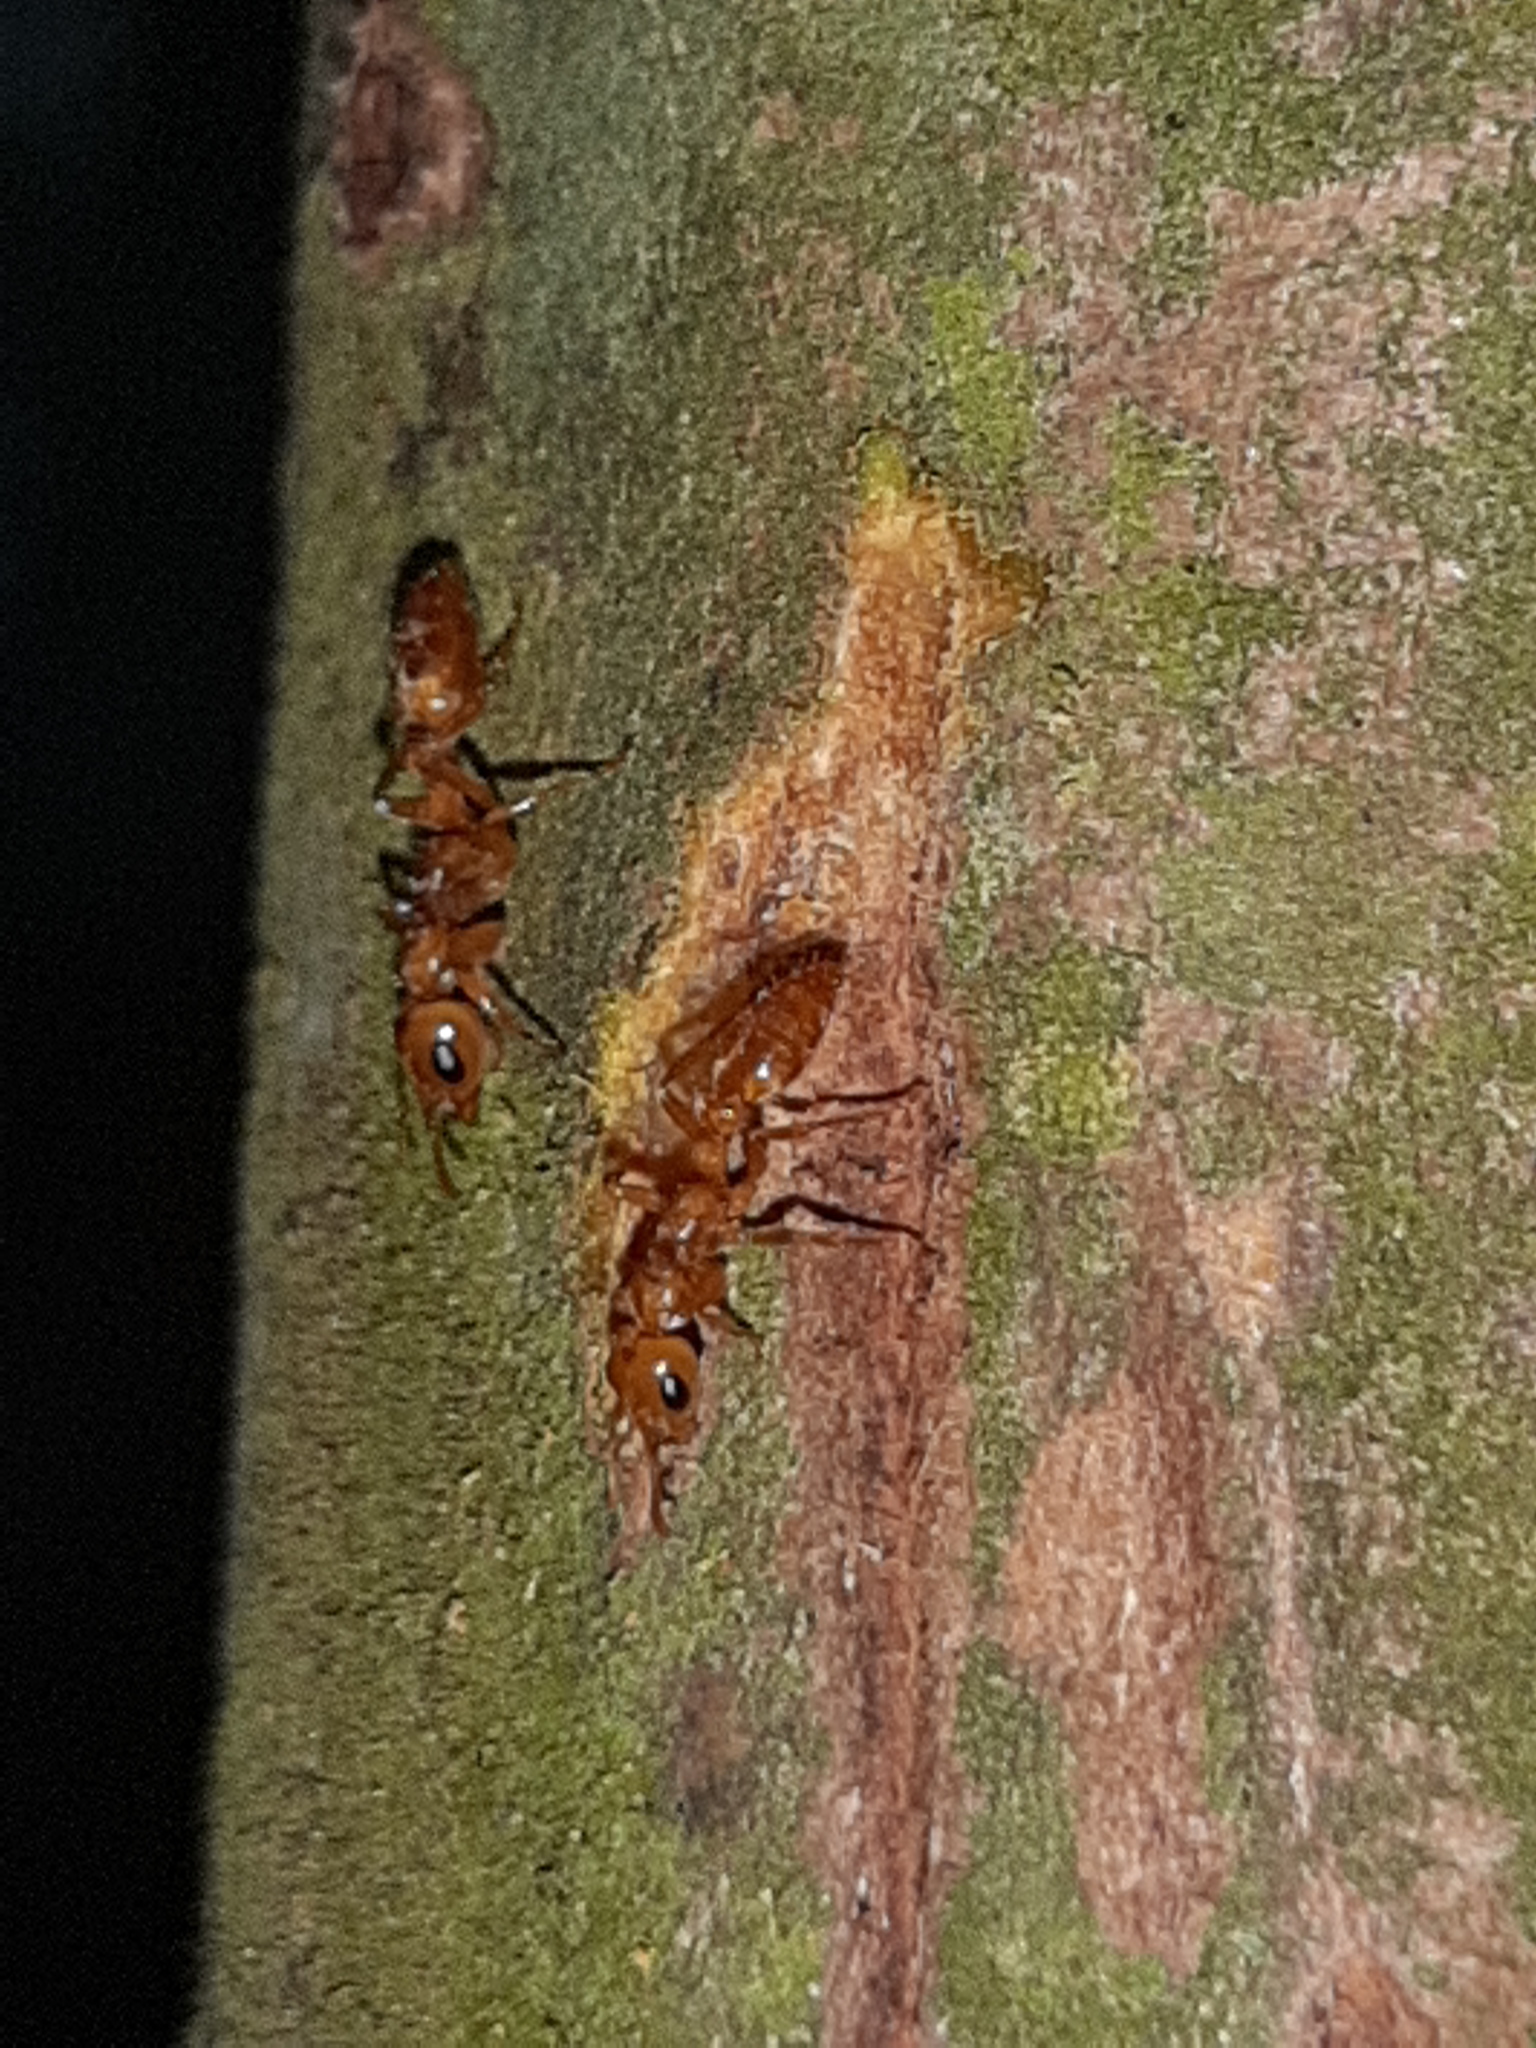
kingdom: Animalia
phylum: Arthropoda
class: Insecta
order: Hymenoptera
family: Formicidae
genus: Pseudomyrmex
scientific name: Pseudomyrmex triplarinus
